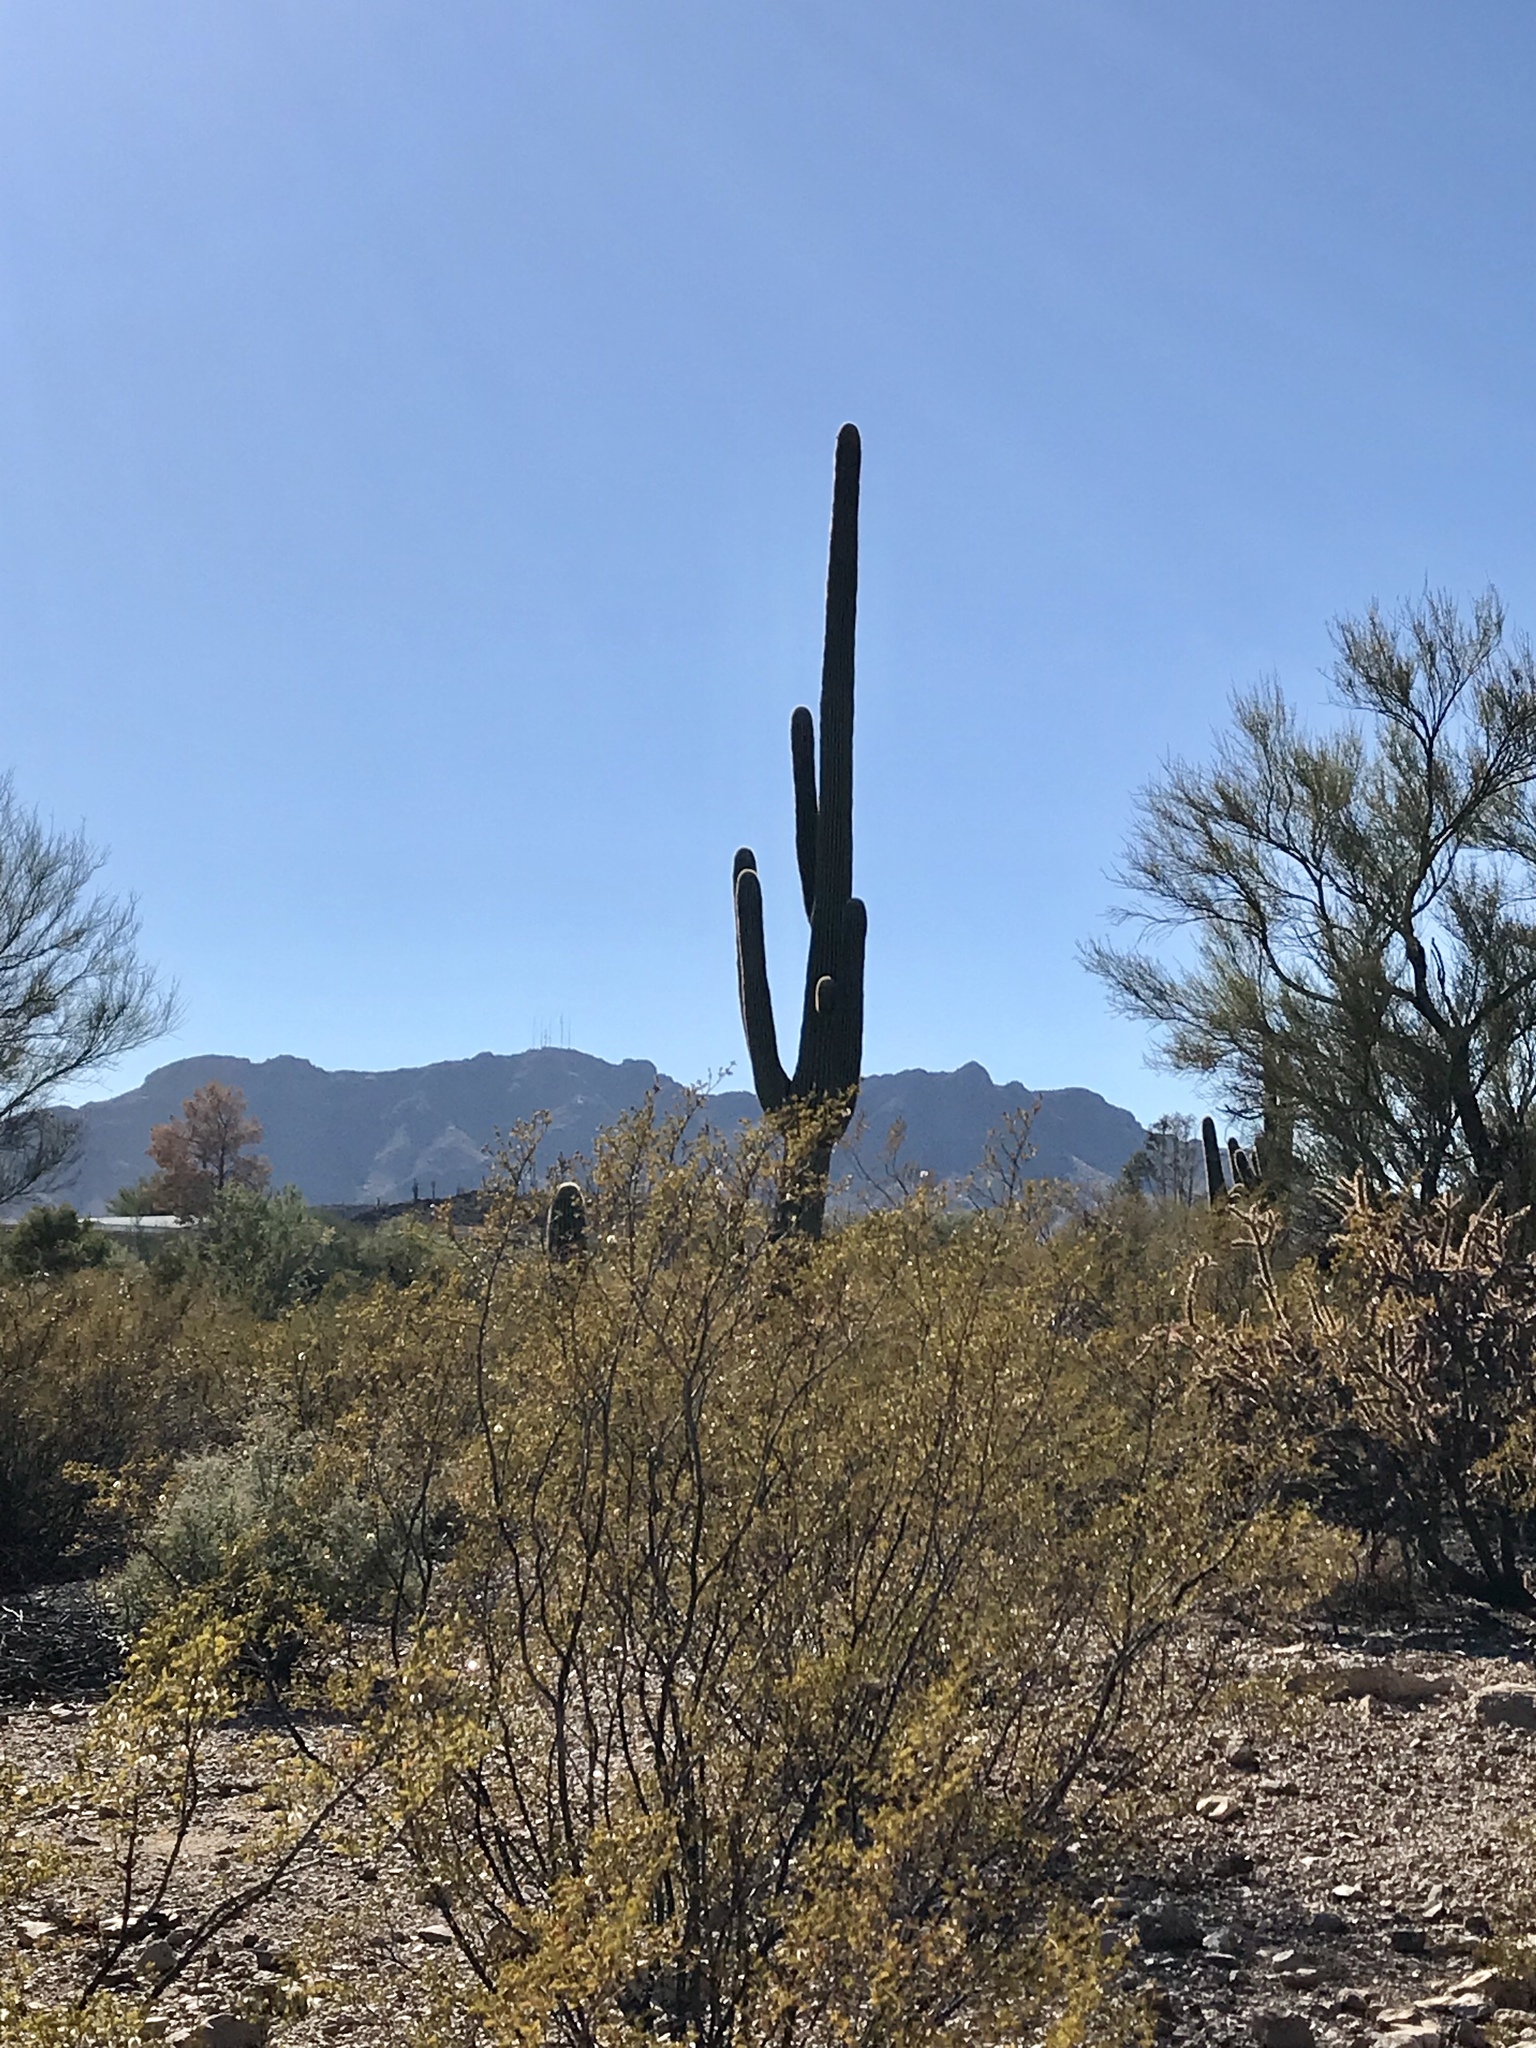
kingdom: Plantae
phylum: Tracheophyta
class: Magnoliopsida
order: Caryophyllales
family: Cactaceae
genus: Carnegiea
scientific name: Carnegiea gigantea
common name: Saguaro
